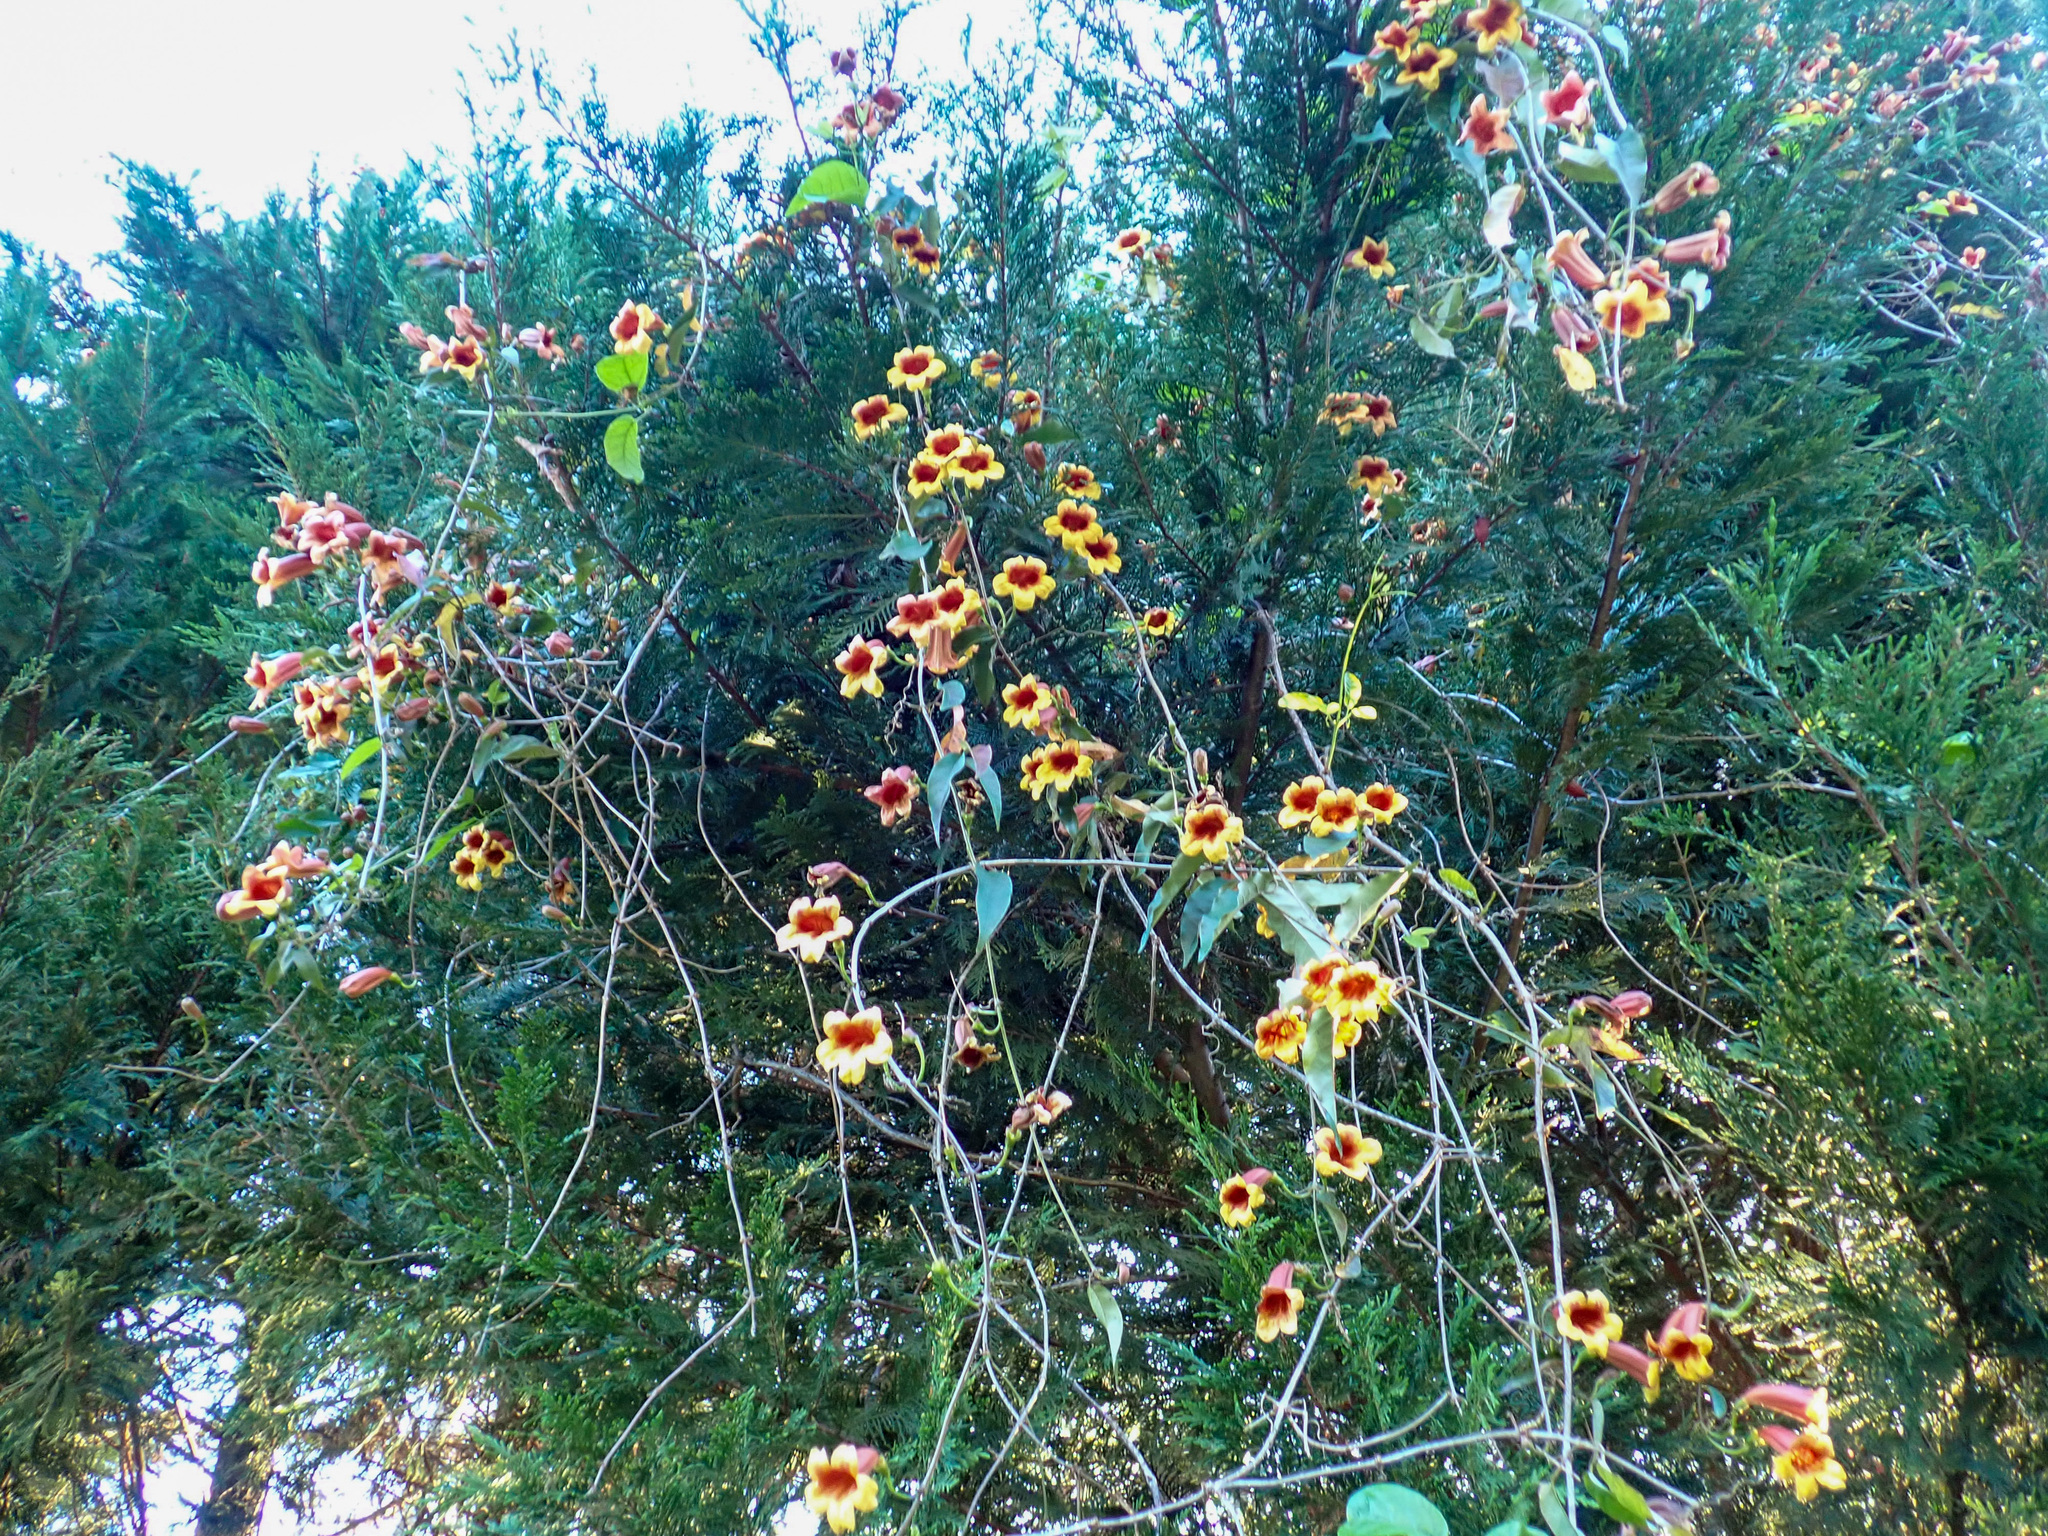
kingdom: Plantae
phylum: Tracheophyta
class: Magnoliopsida
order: Lamiales
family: Bignoniaceae
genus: Bignonia
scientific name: Bignonia capreolata
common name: Crossvine
